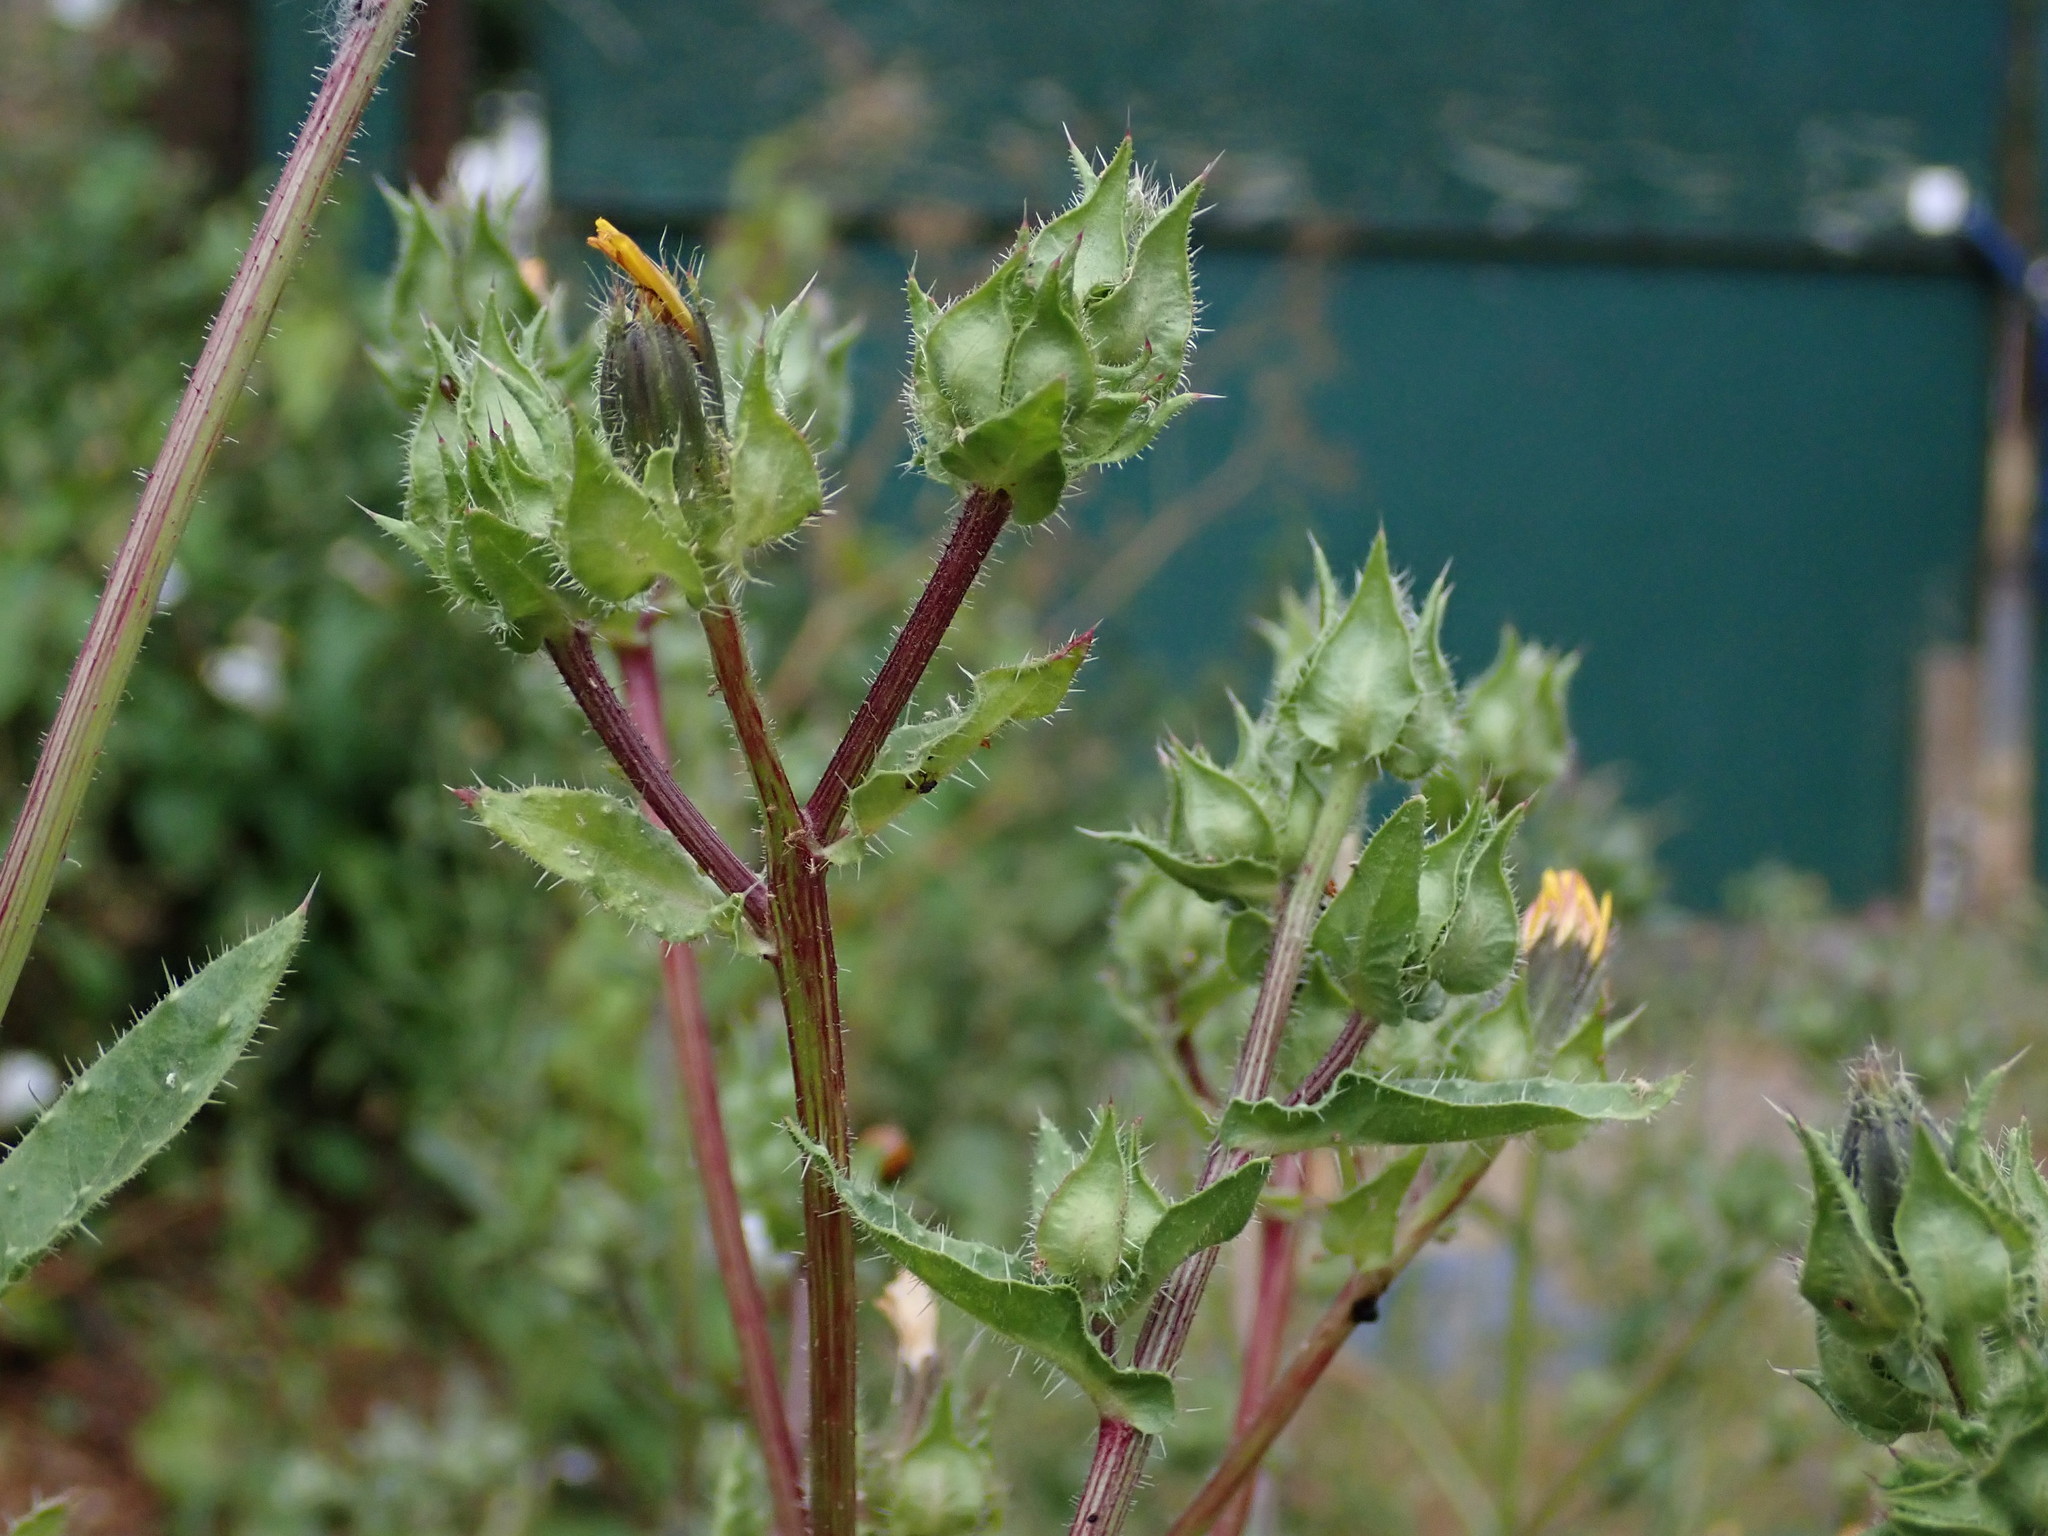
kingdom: Plantae
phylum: Tracheophyta
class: Magnoliopsida
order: Asterales
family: Asteraceae
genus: Helminthotheca
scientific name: Helminthotheca echioides
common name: Ox-tongue
